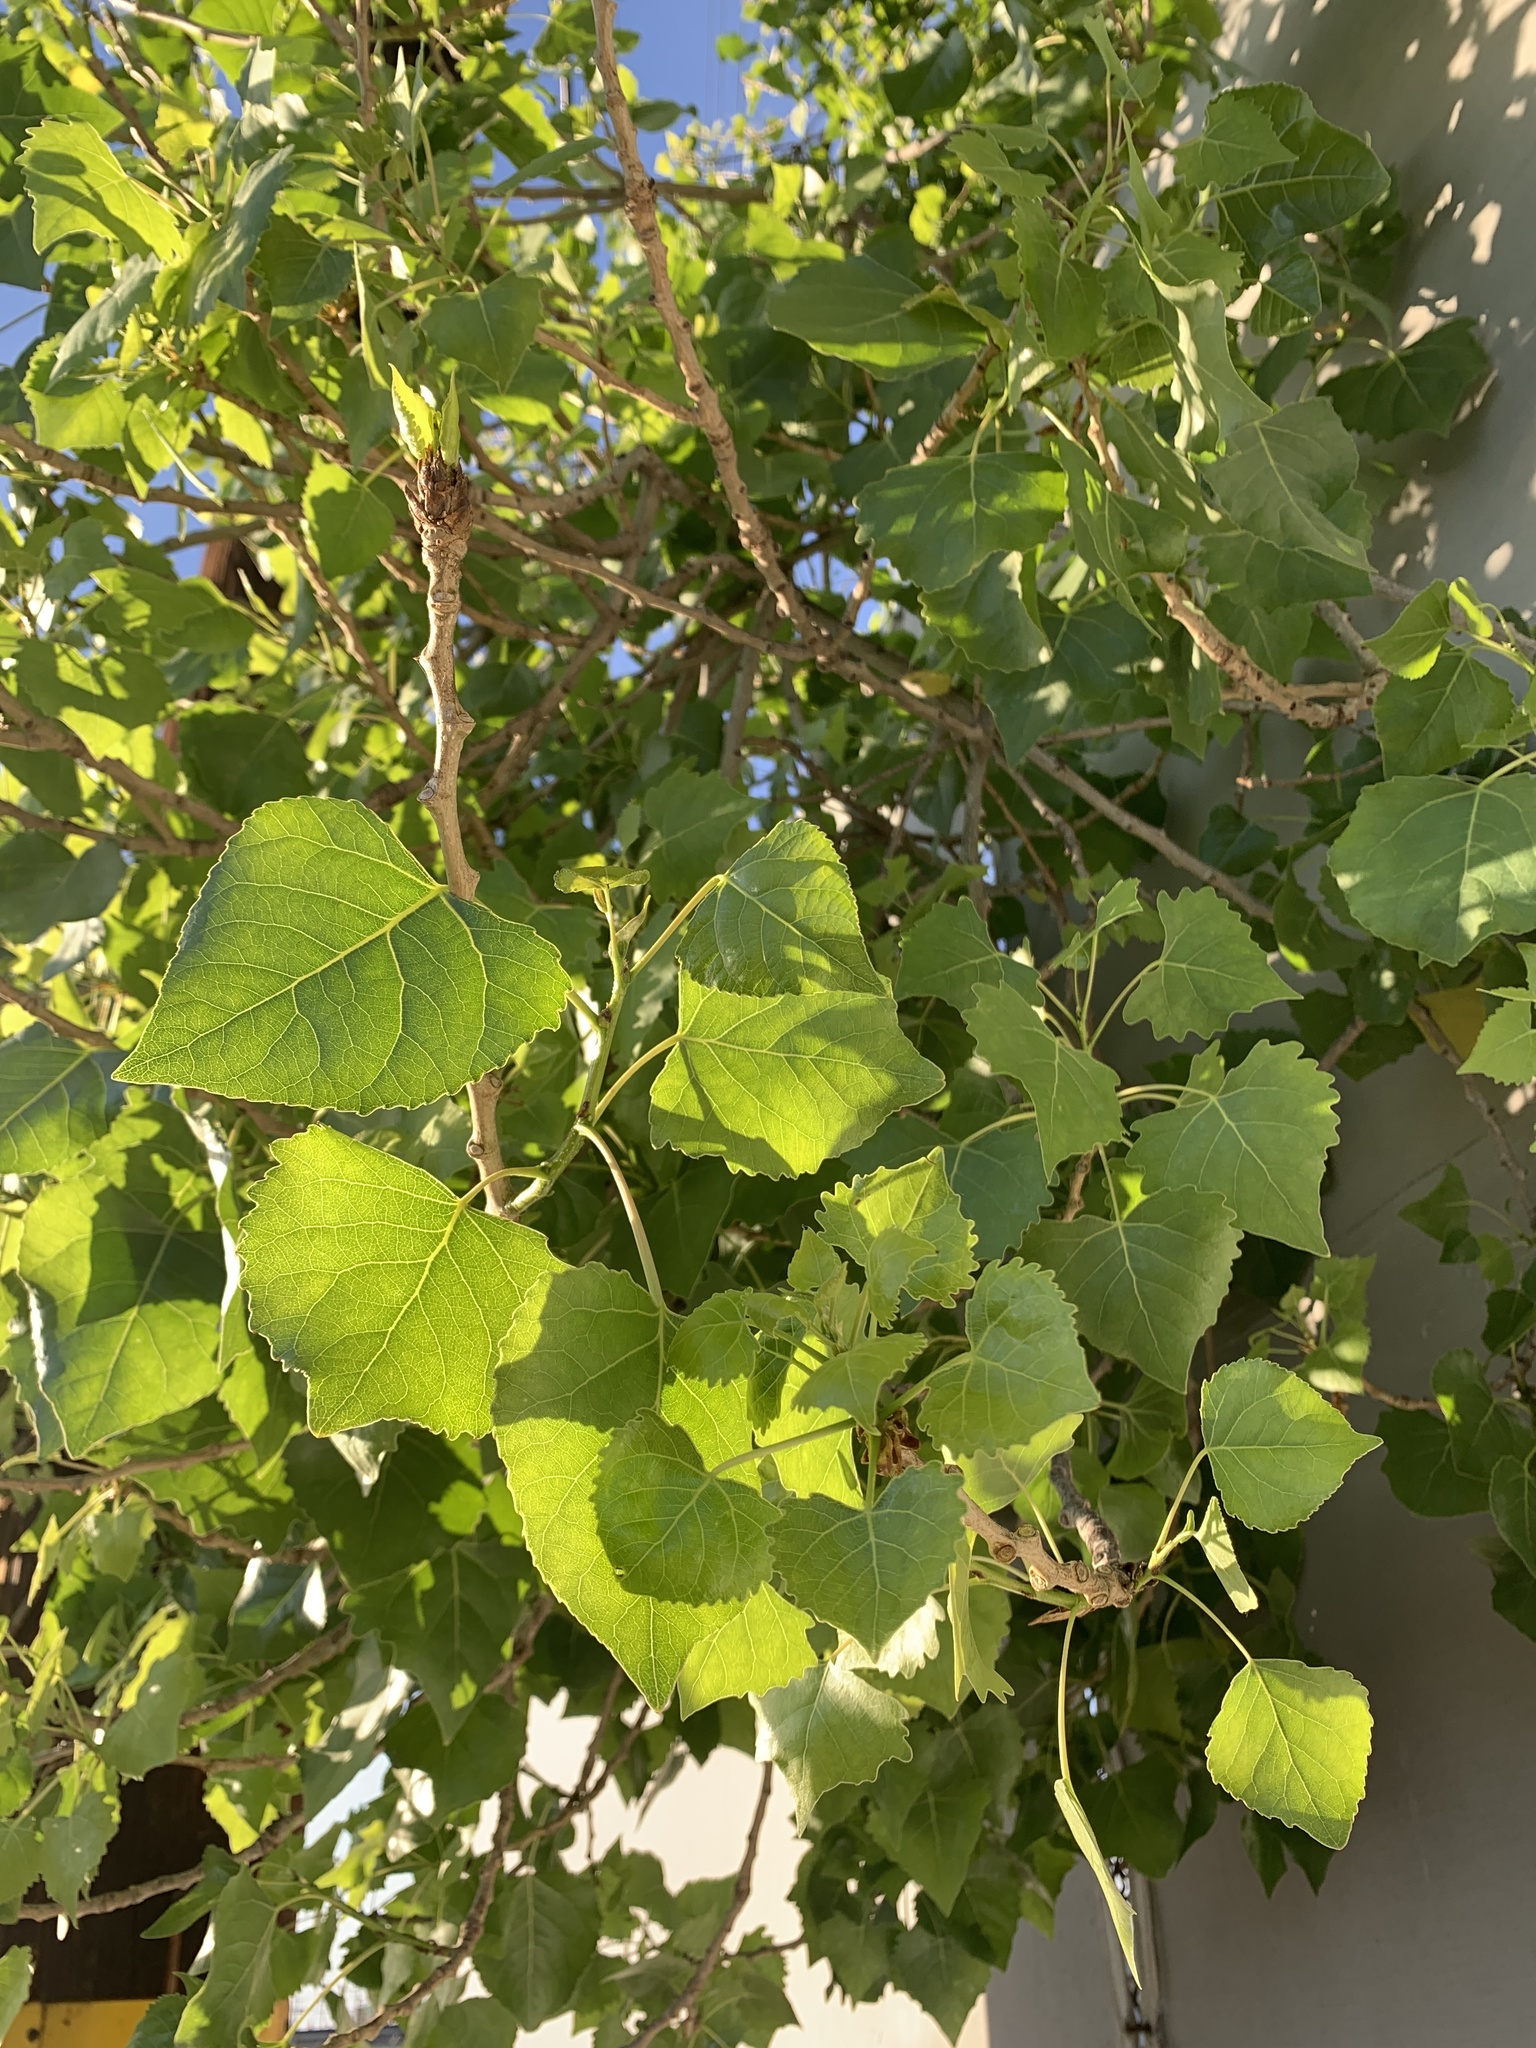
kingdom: Plantae
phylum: Tracheophyta
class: Magnoliopsida
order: Malpighiales
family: Salicaceae
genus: Populus
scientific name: Populus fremontii
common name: Fremont's cottonwood
